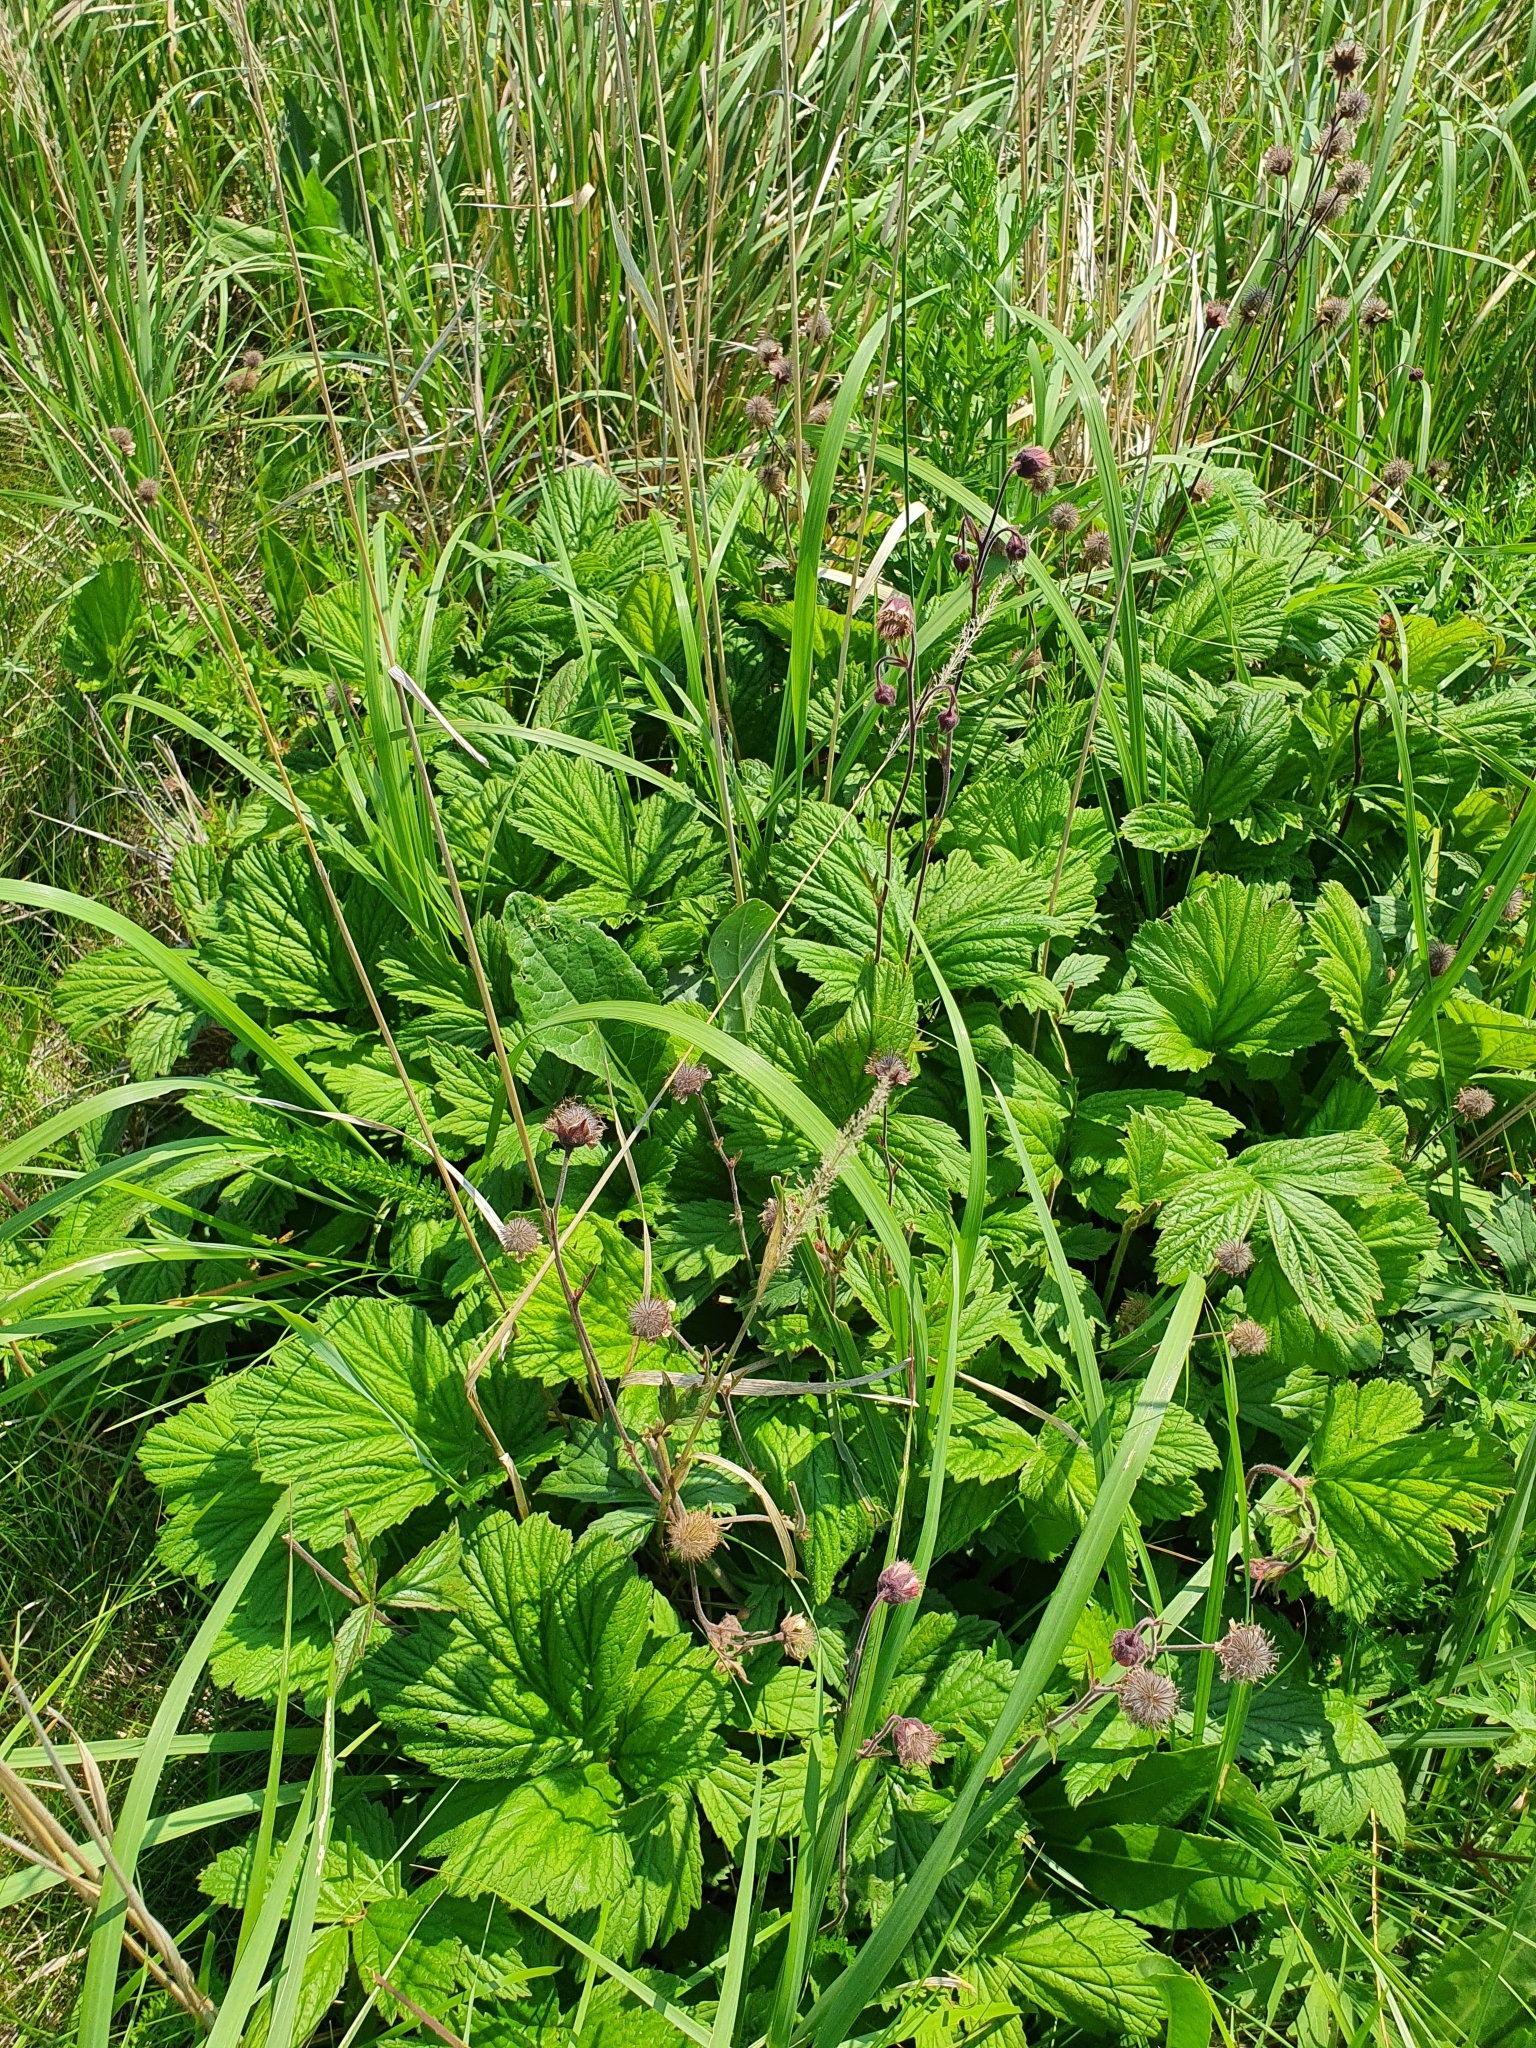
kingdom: Plantae
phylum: Tracheophyta
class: Magnoliopsida
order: Rosales
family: Rosaceae
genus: Geum
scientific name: Geum rivale
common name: Water avens
